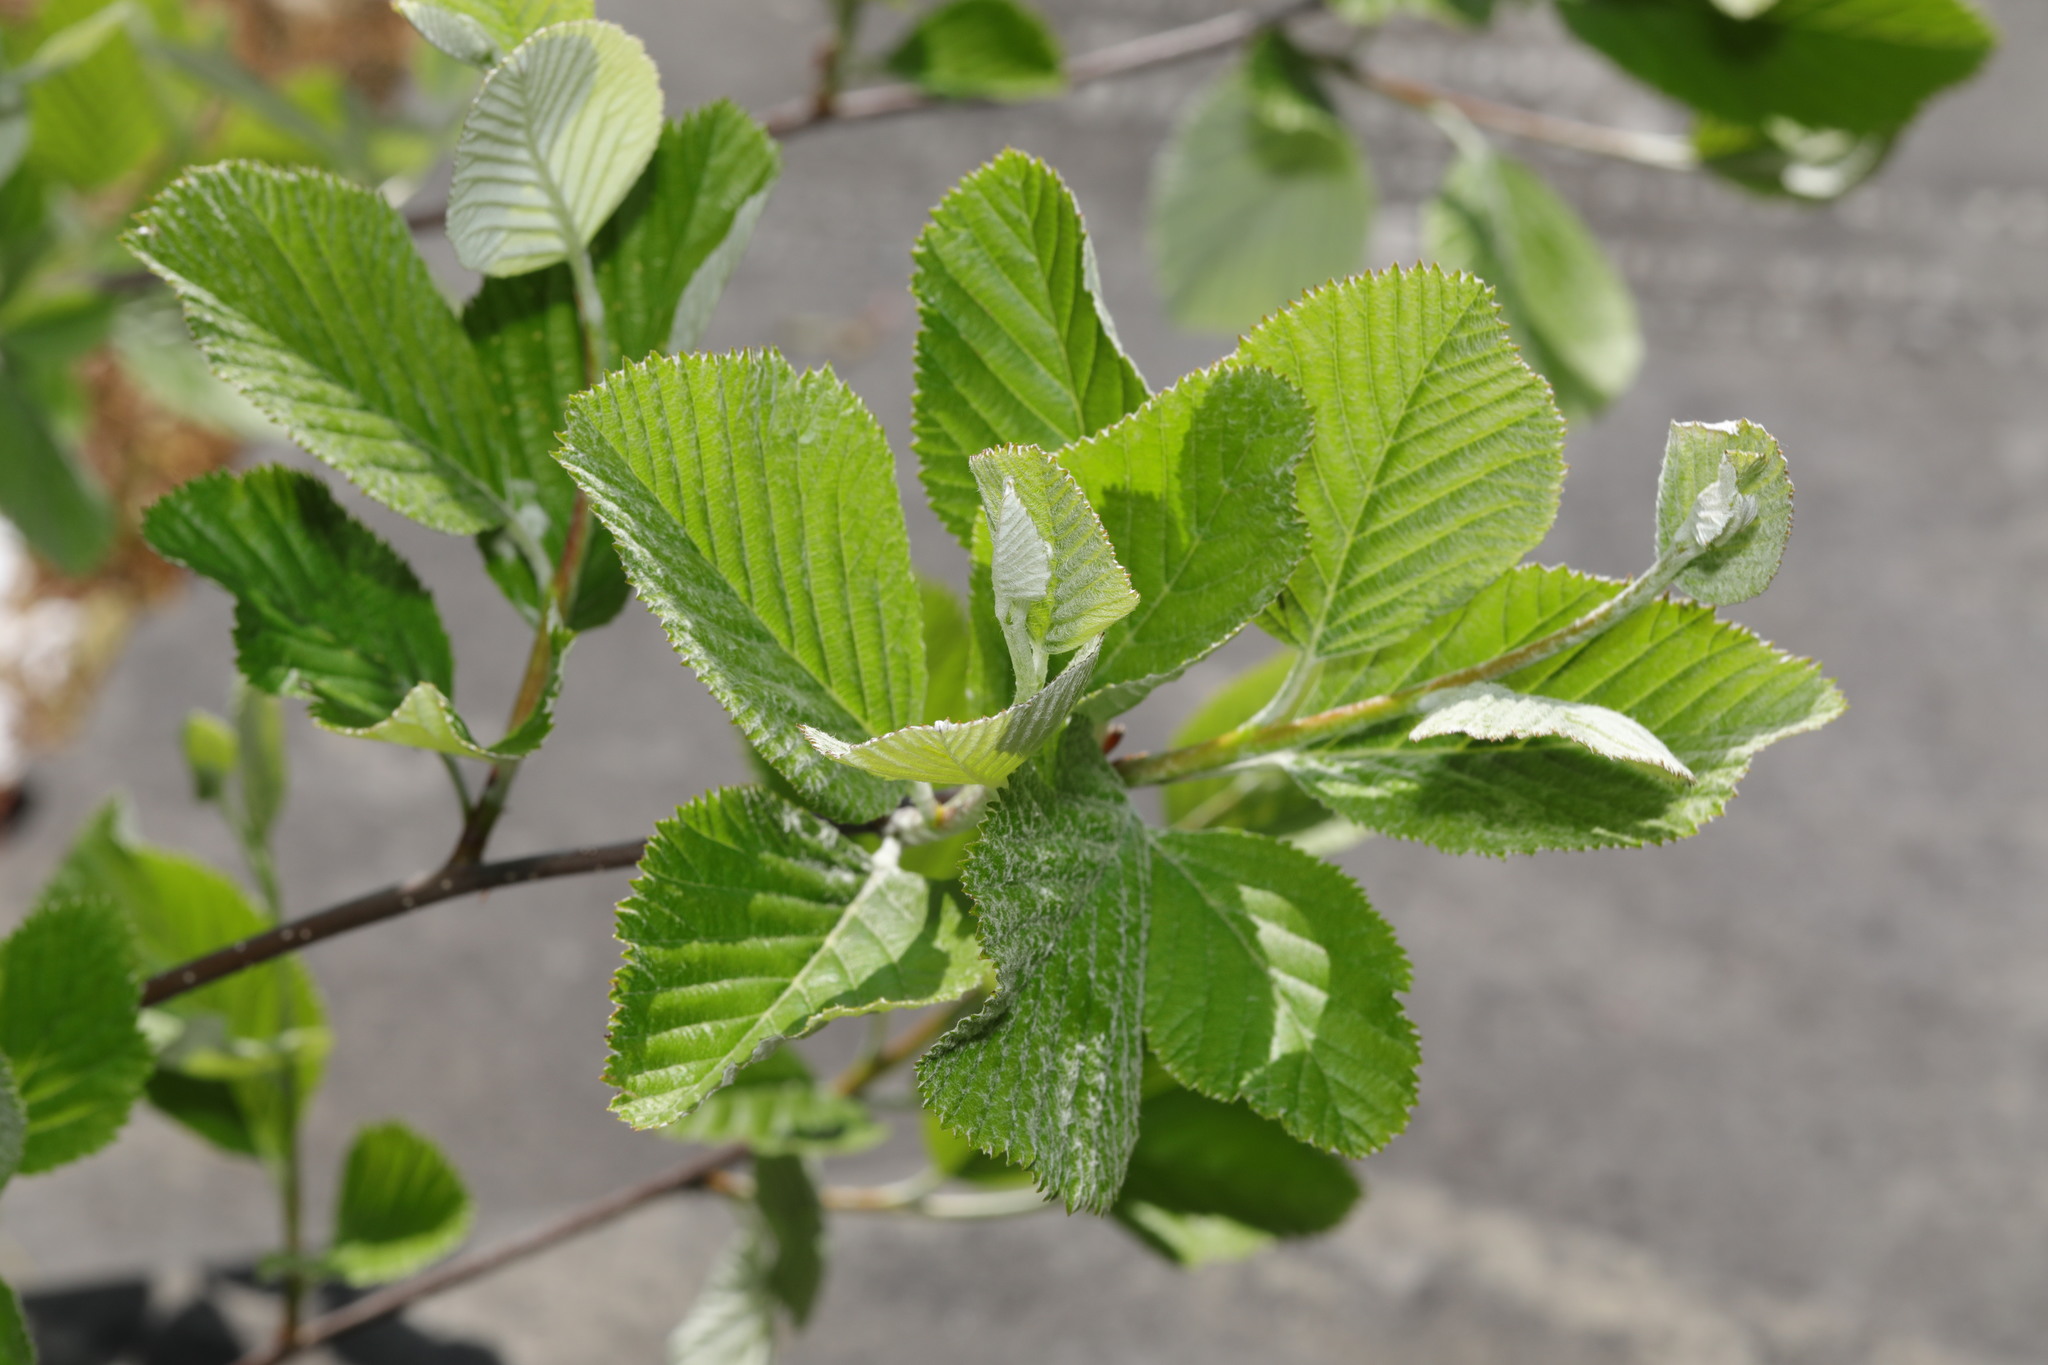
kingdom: Plantae
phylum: Tracheophyta
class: Magnoliopsida
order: Rosales
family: Rosaceae
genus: Aria
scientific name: Aria edulis
